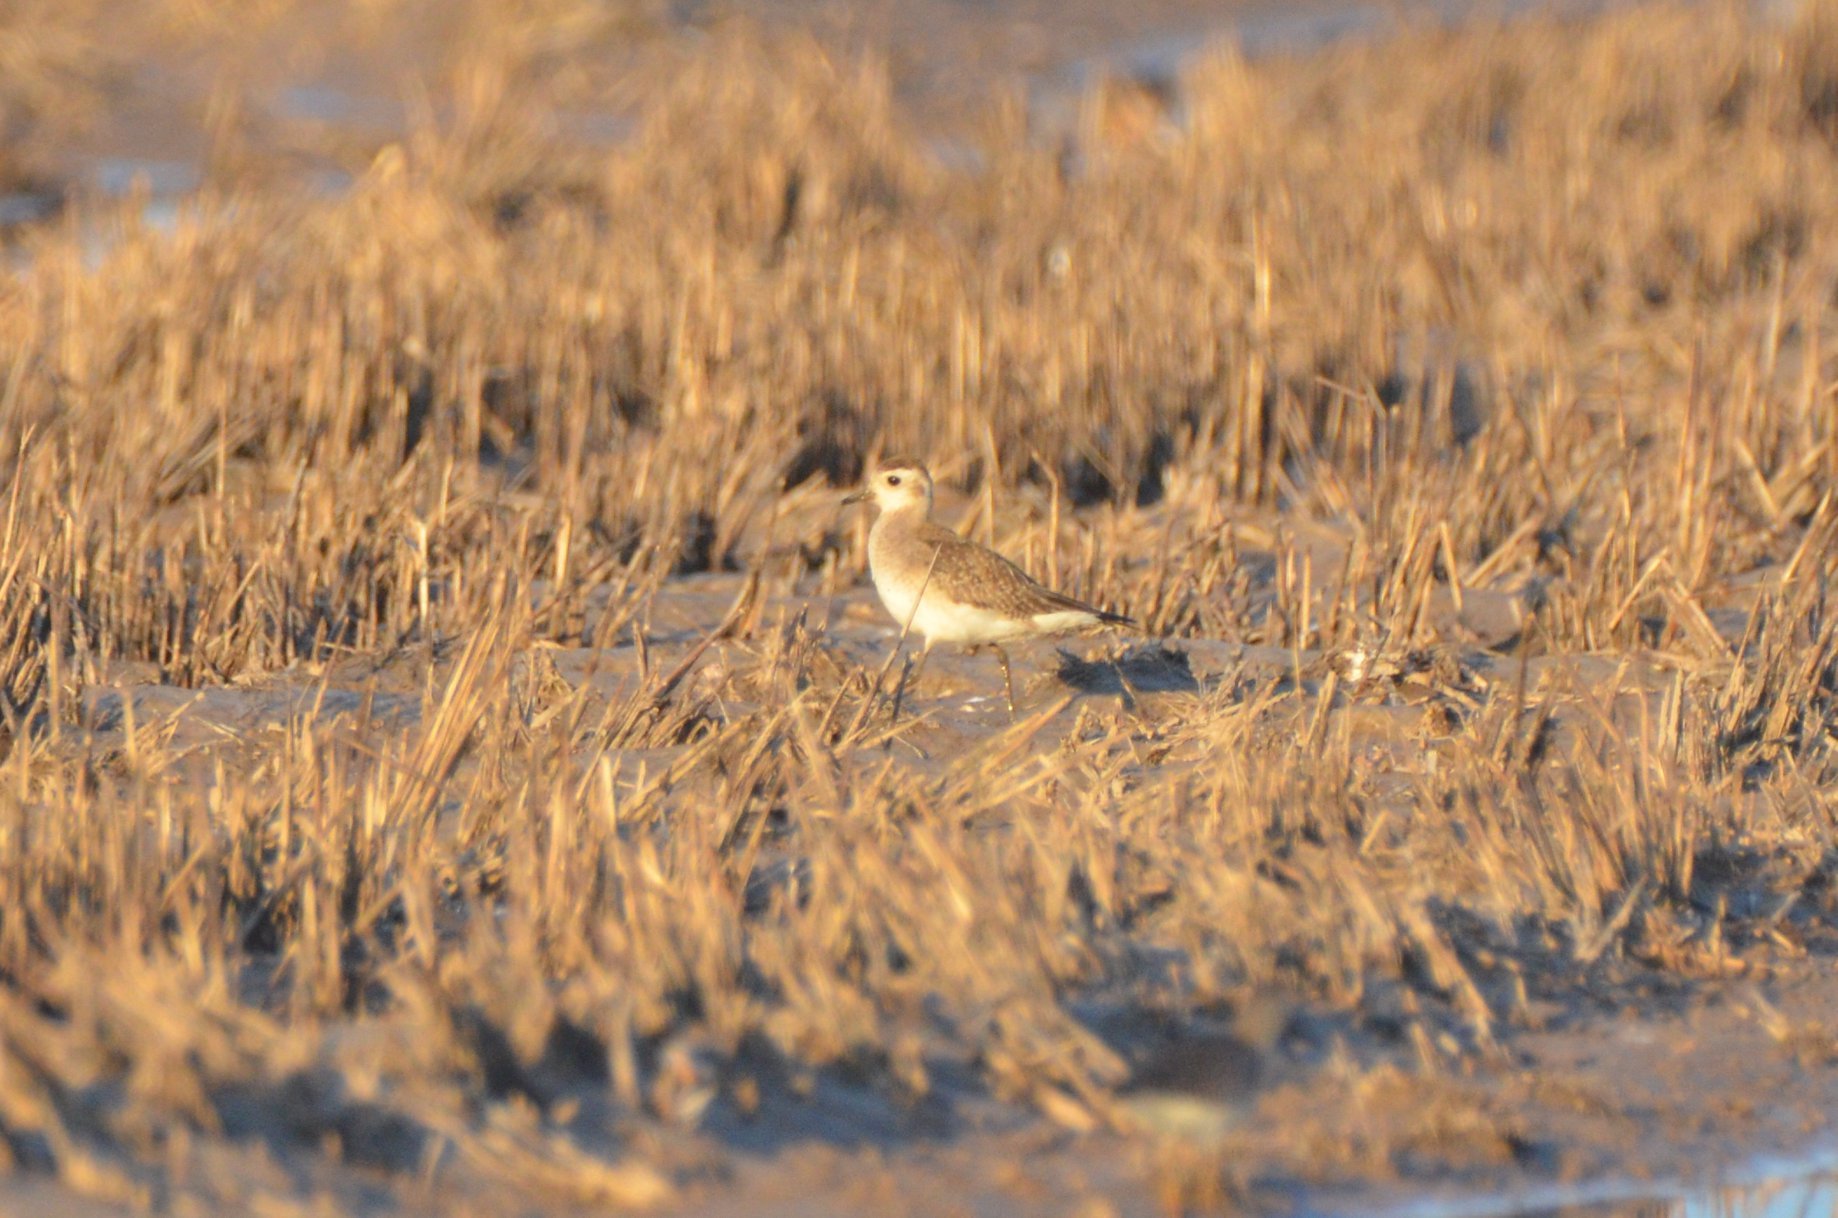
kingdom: Animalia
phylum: Chordata
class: Aves
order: Charadriiformes
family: Charadriidae
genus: Pluvialis
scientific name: Pluvialis dominica
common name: American golden plover
